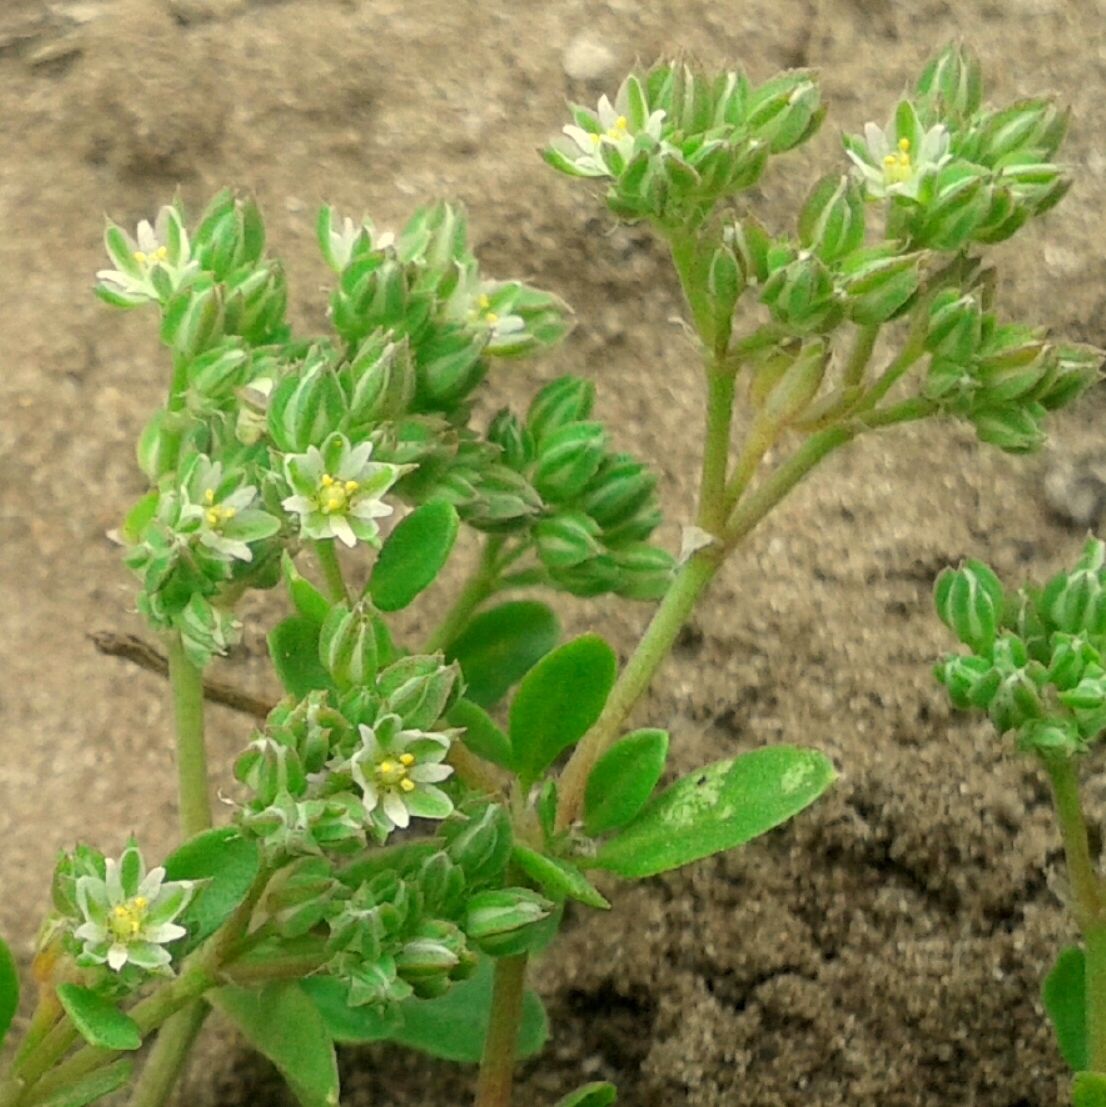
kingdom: Plantae
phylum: Tracheophyta
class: Magnoliopsida
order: Caryophyllales
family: Caryophyllaceae
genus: Polycarpon
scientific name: Polycarpon tetraphyllum
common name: Four-leaved all-seed
